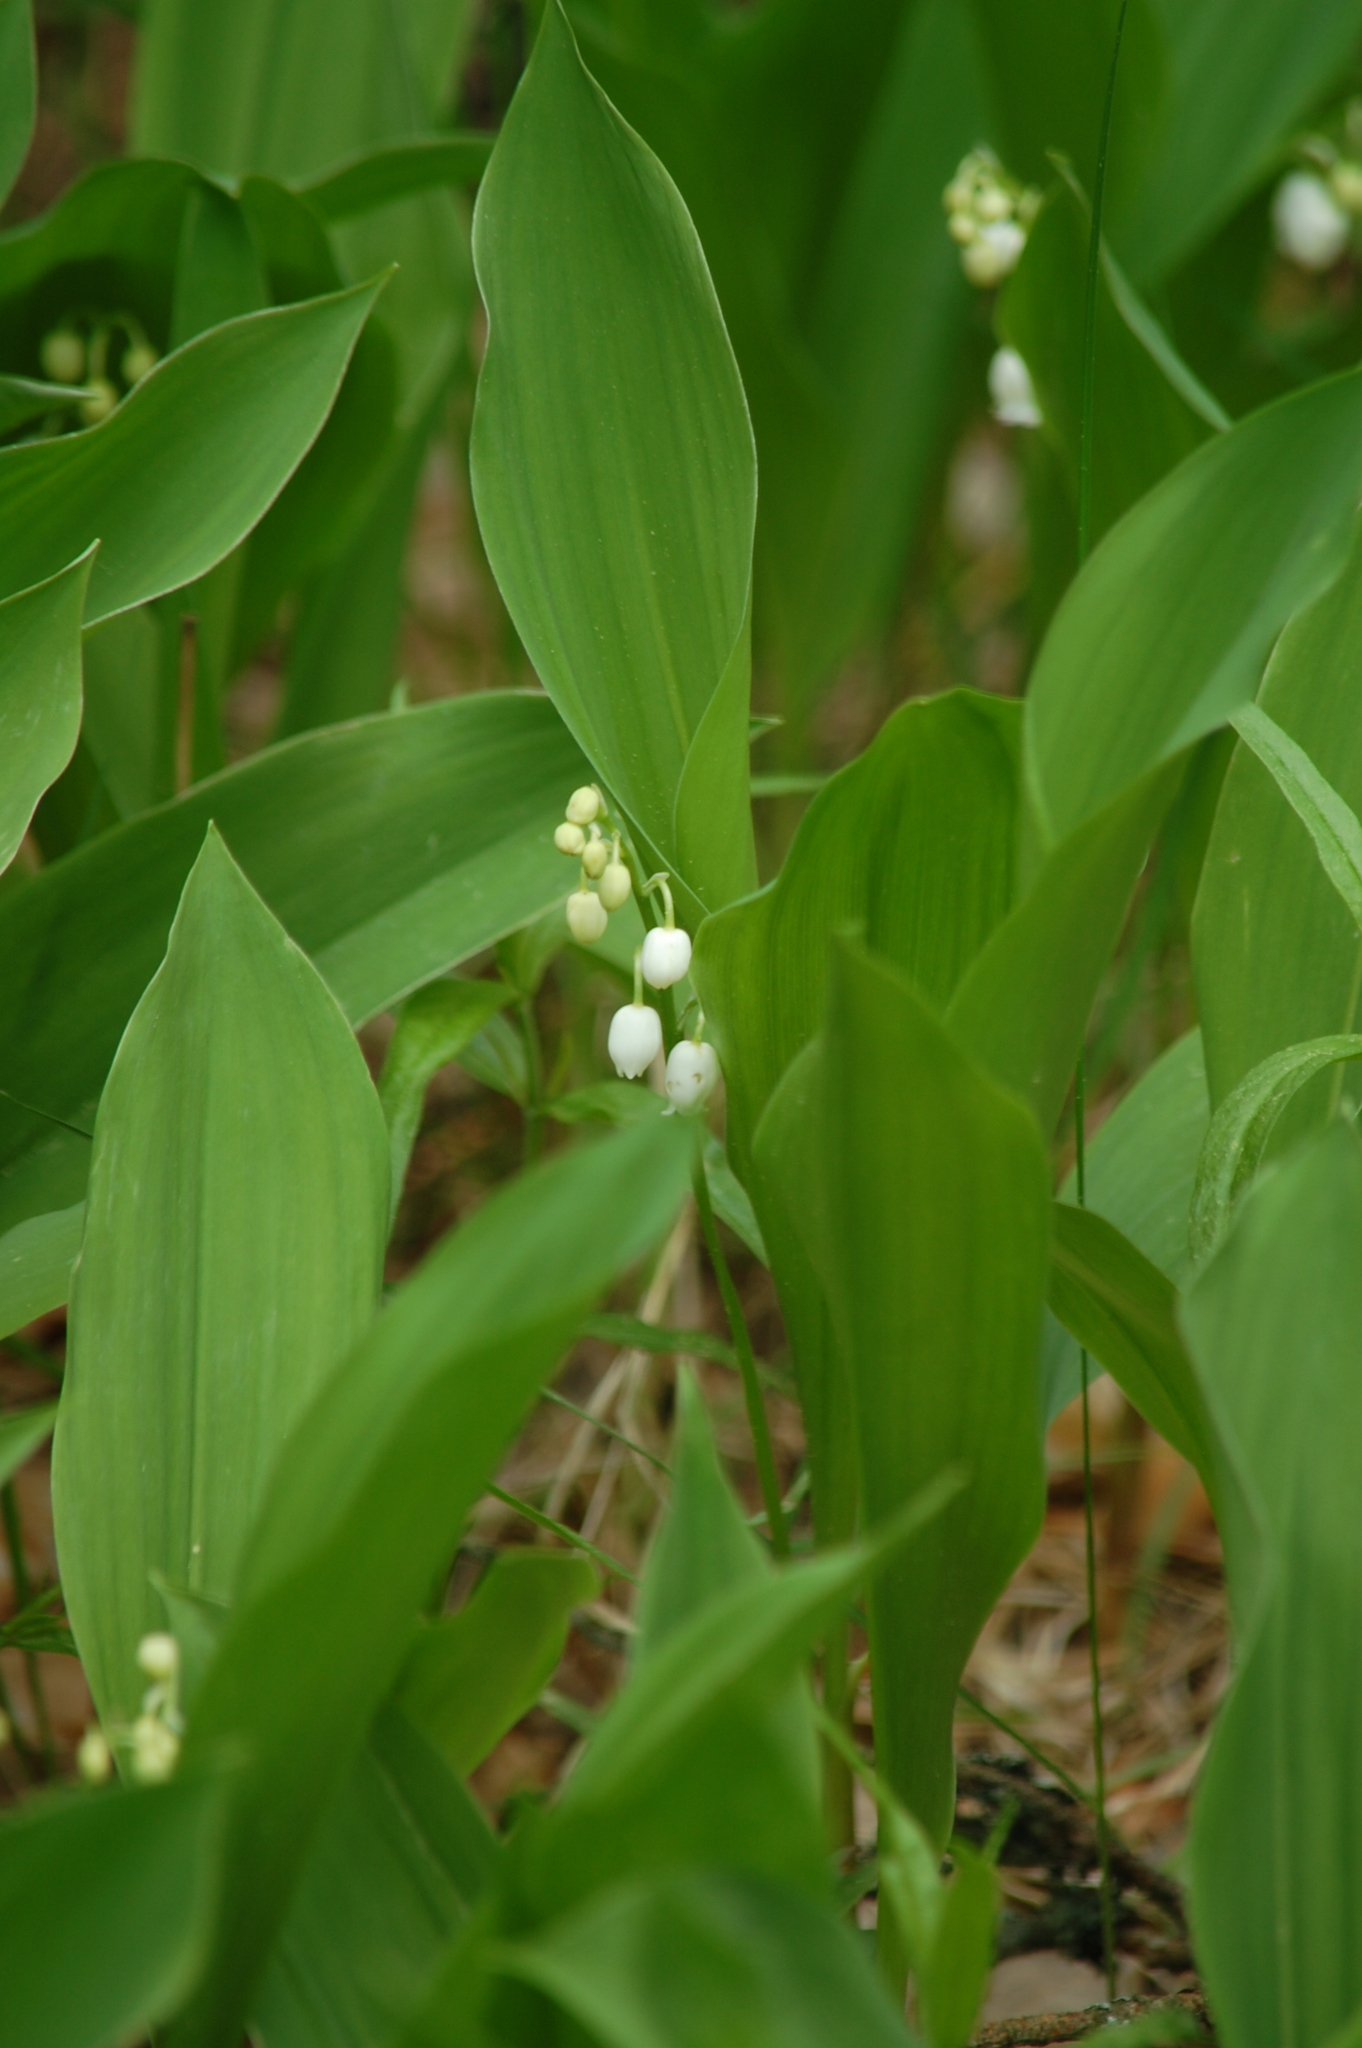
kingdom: Plantae
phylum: Tracheophyta
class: Liliopsida
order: Asparagales
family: Asparagaceae
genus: Convallaria
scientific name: Convallaria majalis
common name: Lily-of-the-valley
